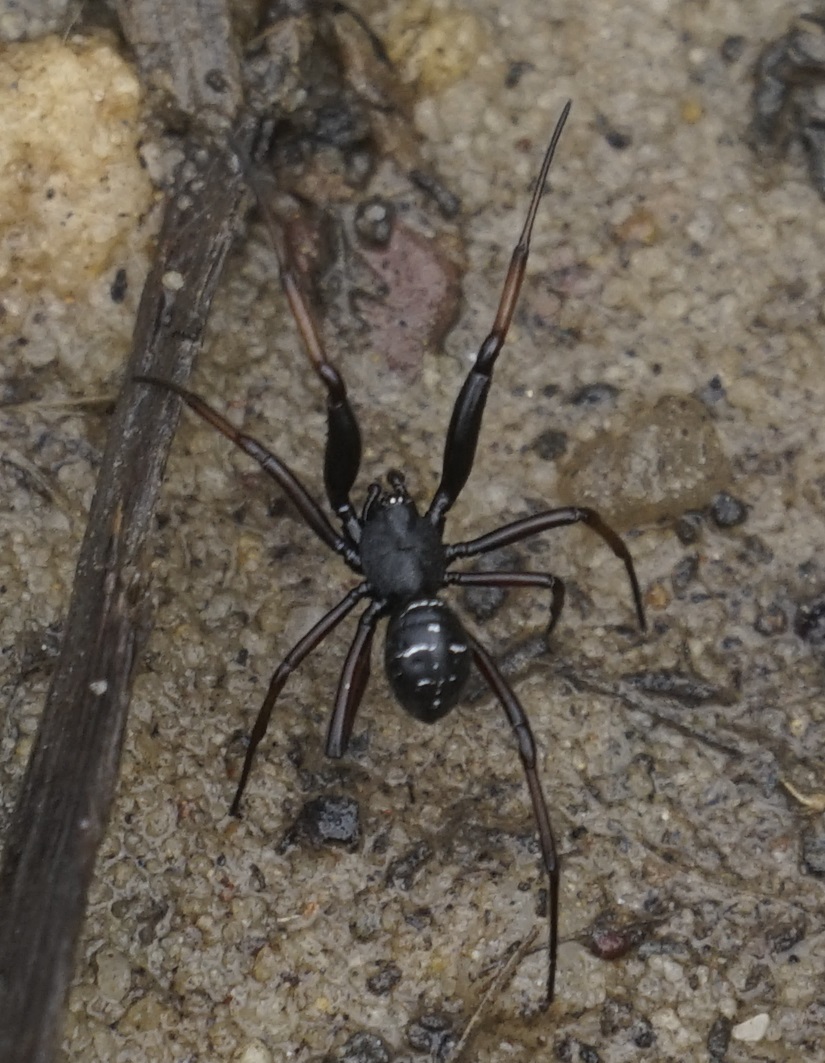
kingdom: Animalia
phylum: Arthropoda
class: Arachnida
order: Araneae
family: Theridiidae
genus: Steatoda
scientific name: Steatoda capensis
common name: Cobweb weaver
